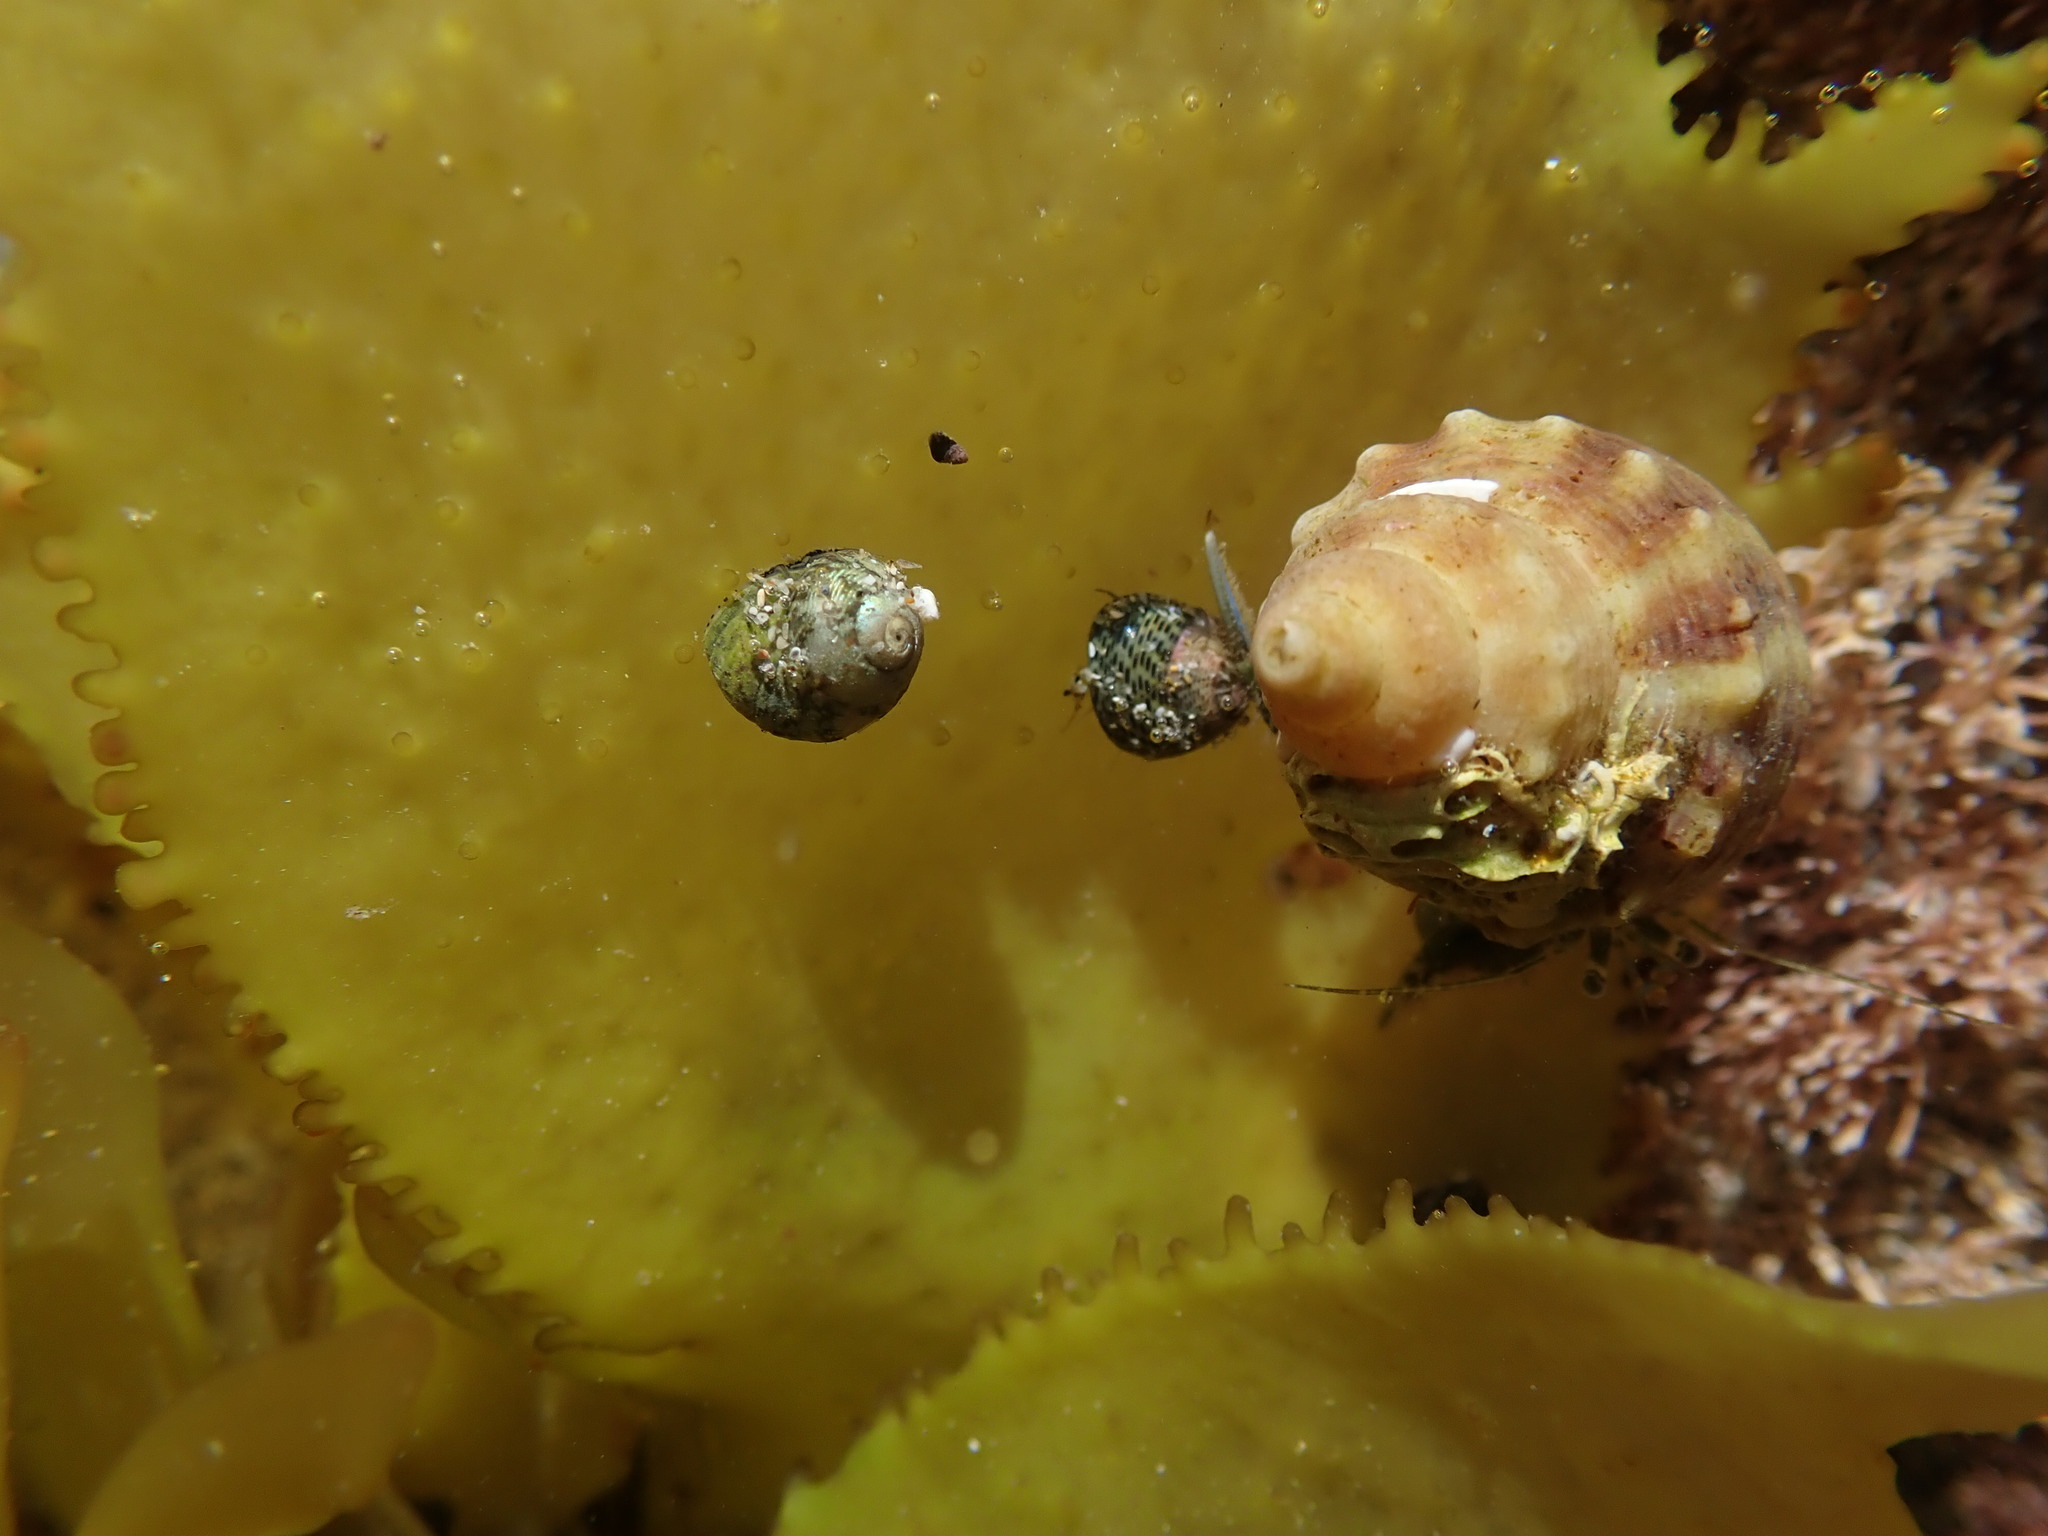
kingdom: Animalia
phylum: Mollusca
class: Gastropoda
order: Trochida
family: Trochidae
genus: Micrelenchus
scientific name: Micrelenchus tessellatus
